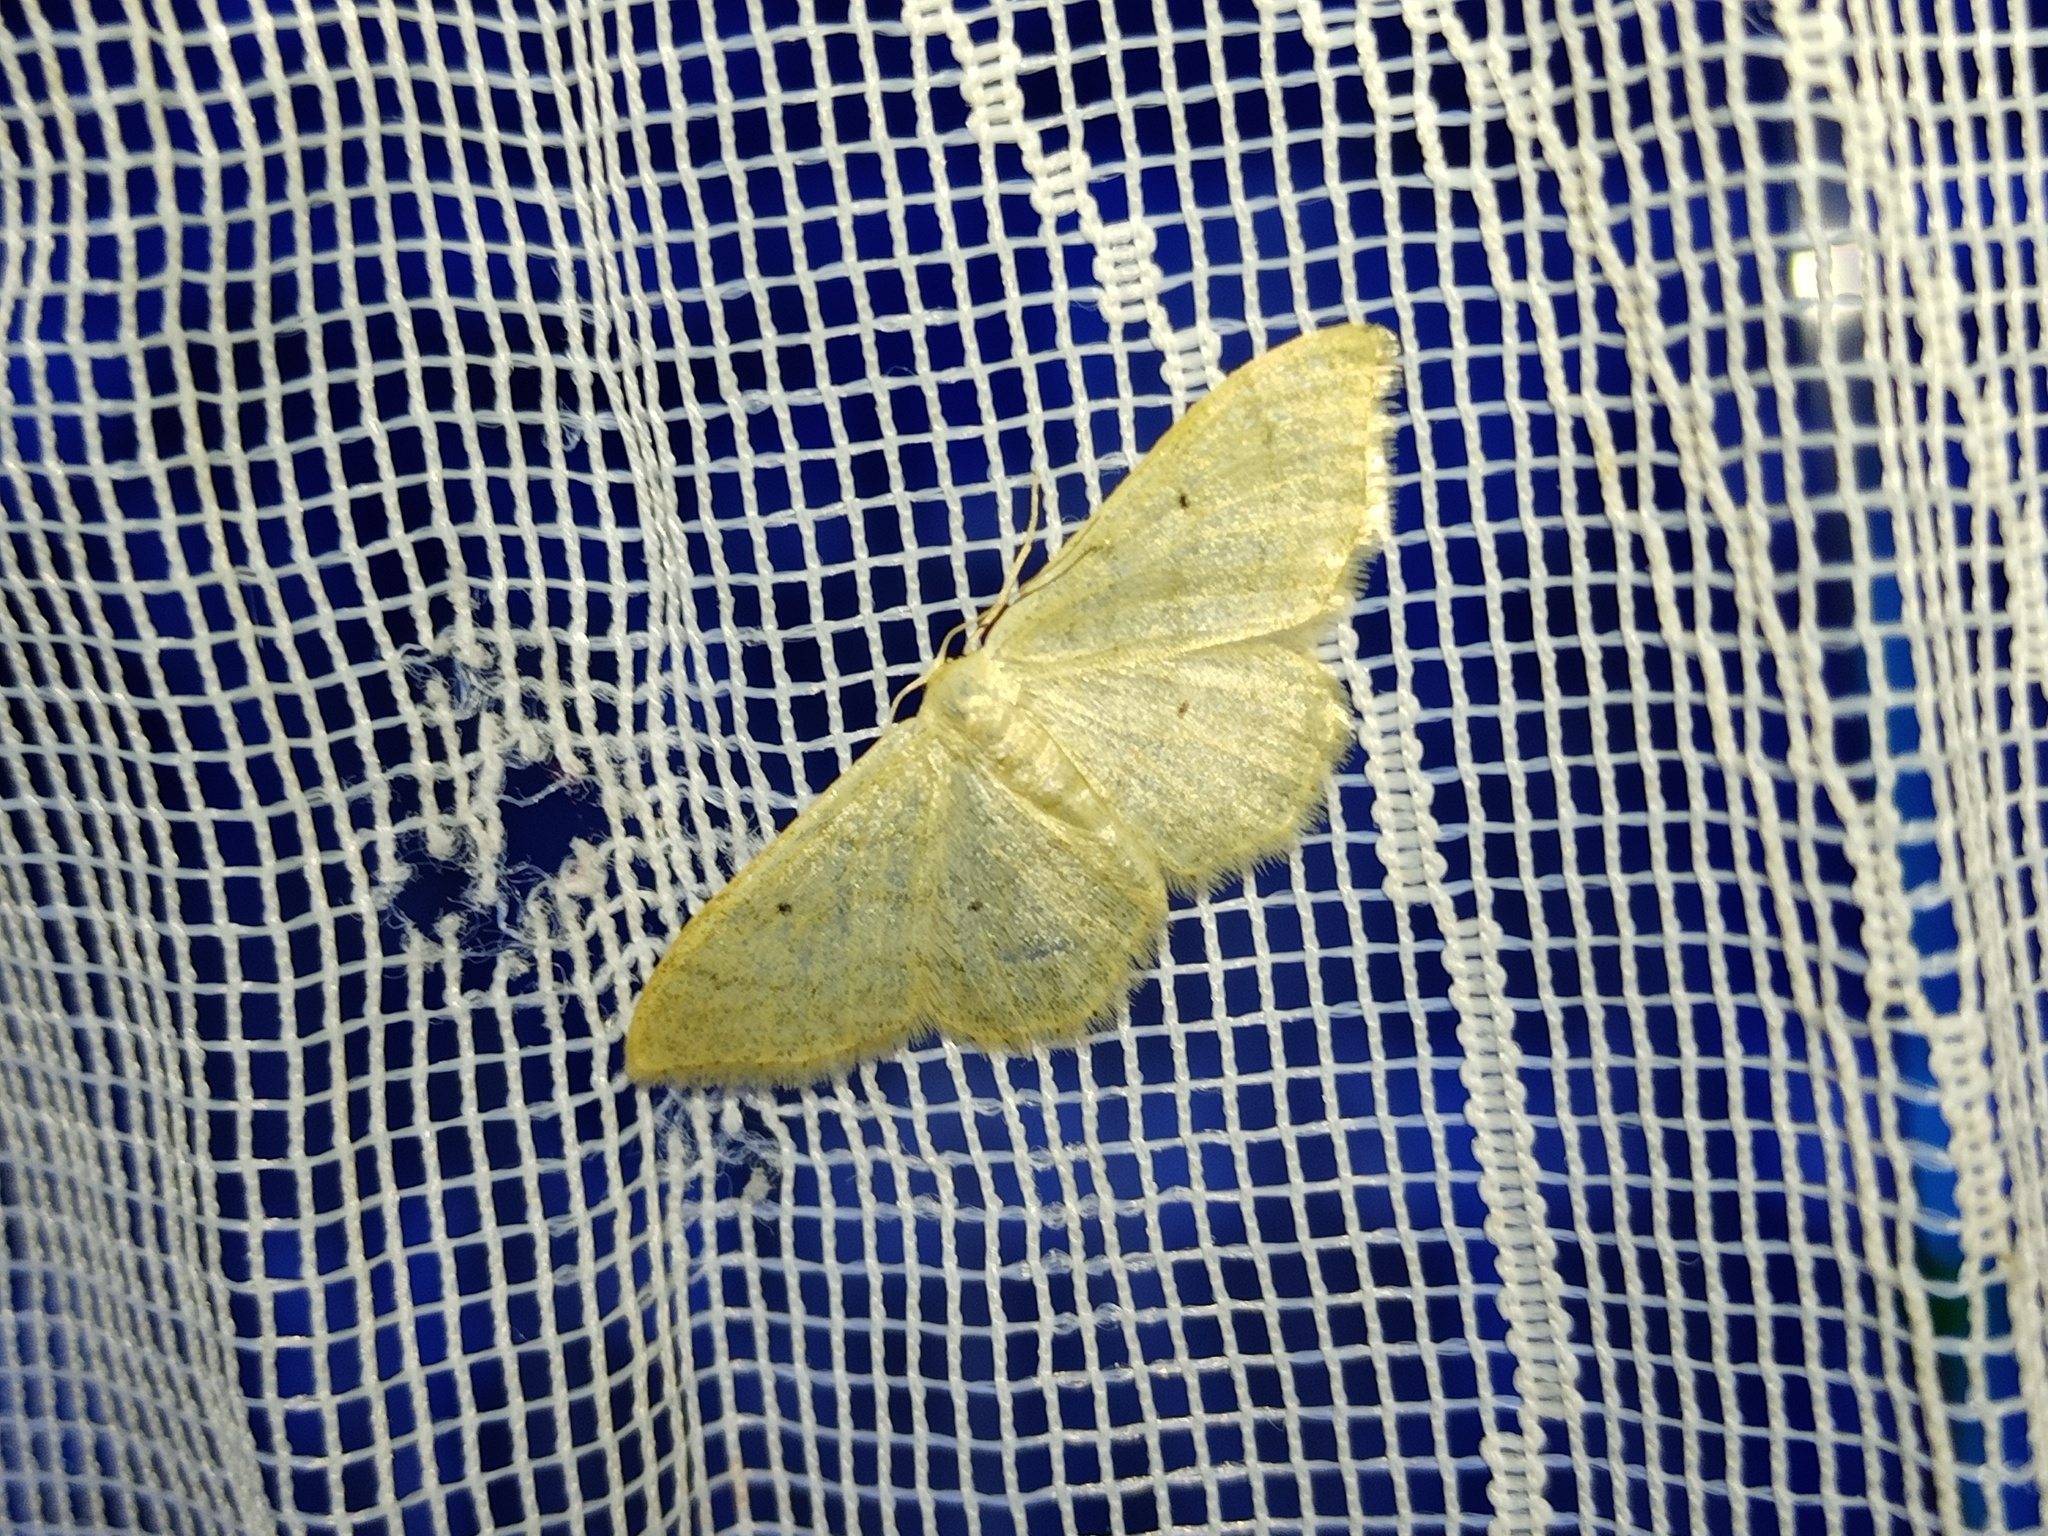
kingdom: Animalia
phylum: Arthropoda
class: Insecta
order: Lepidoptera
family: Geometridae
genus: Idaea
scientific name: Idaea straminata
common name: Plain wave
